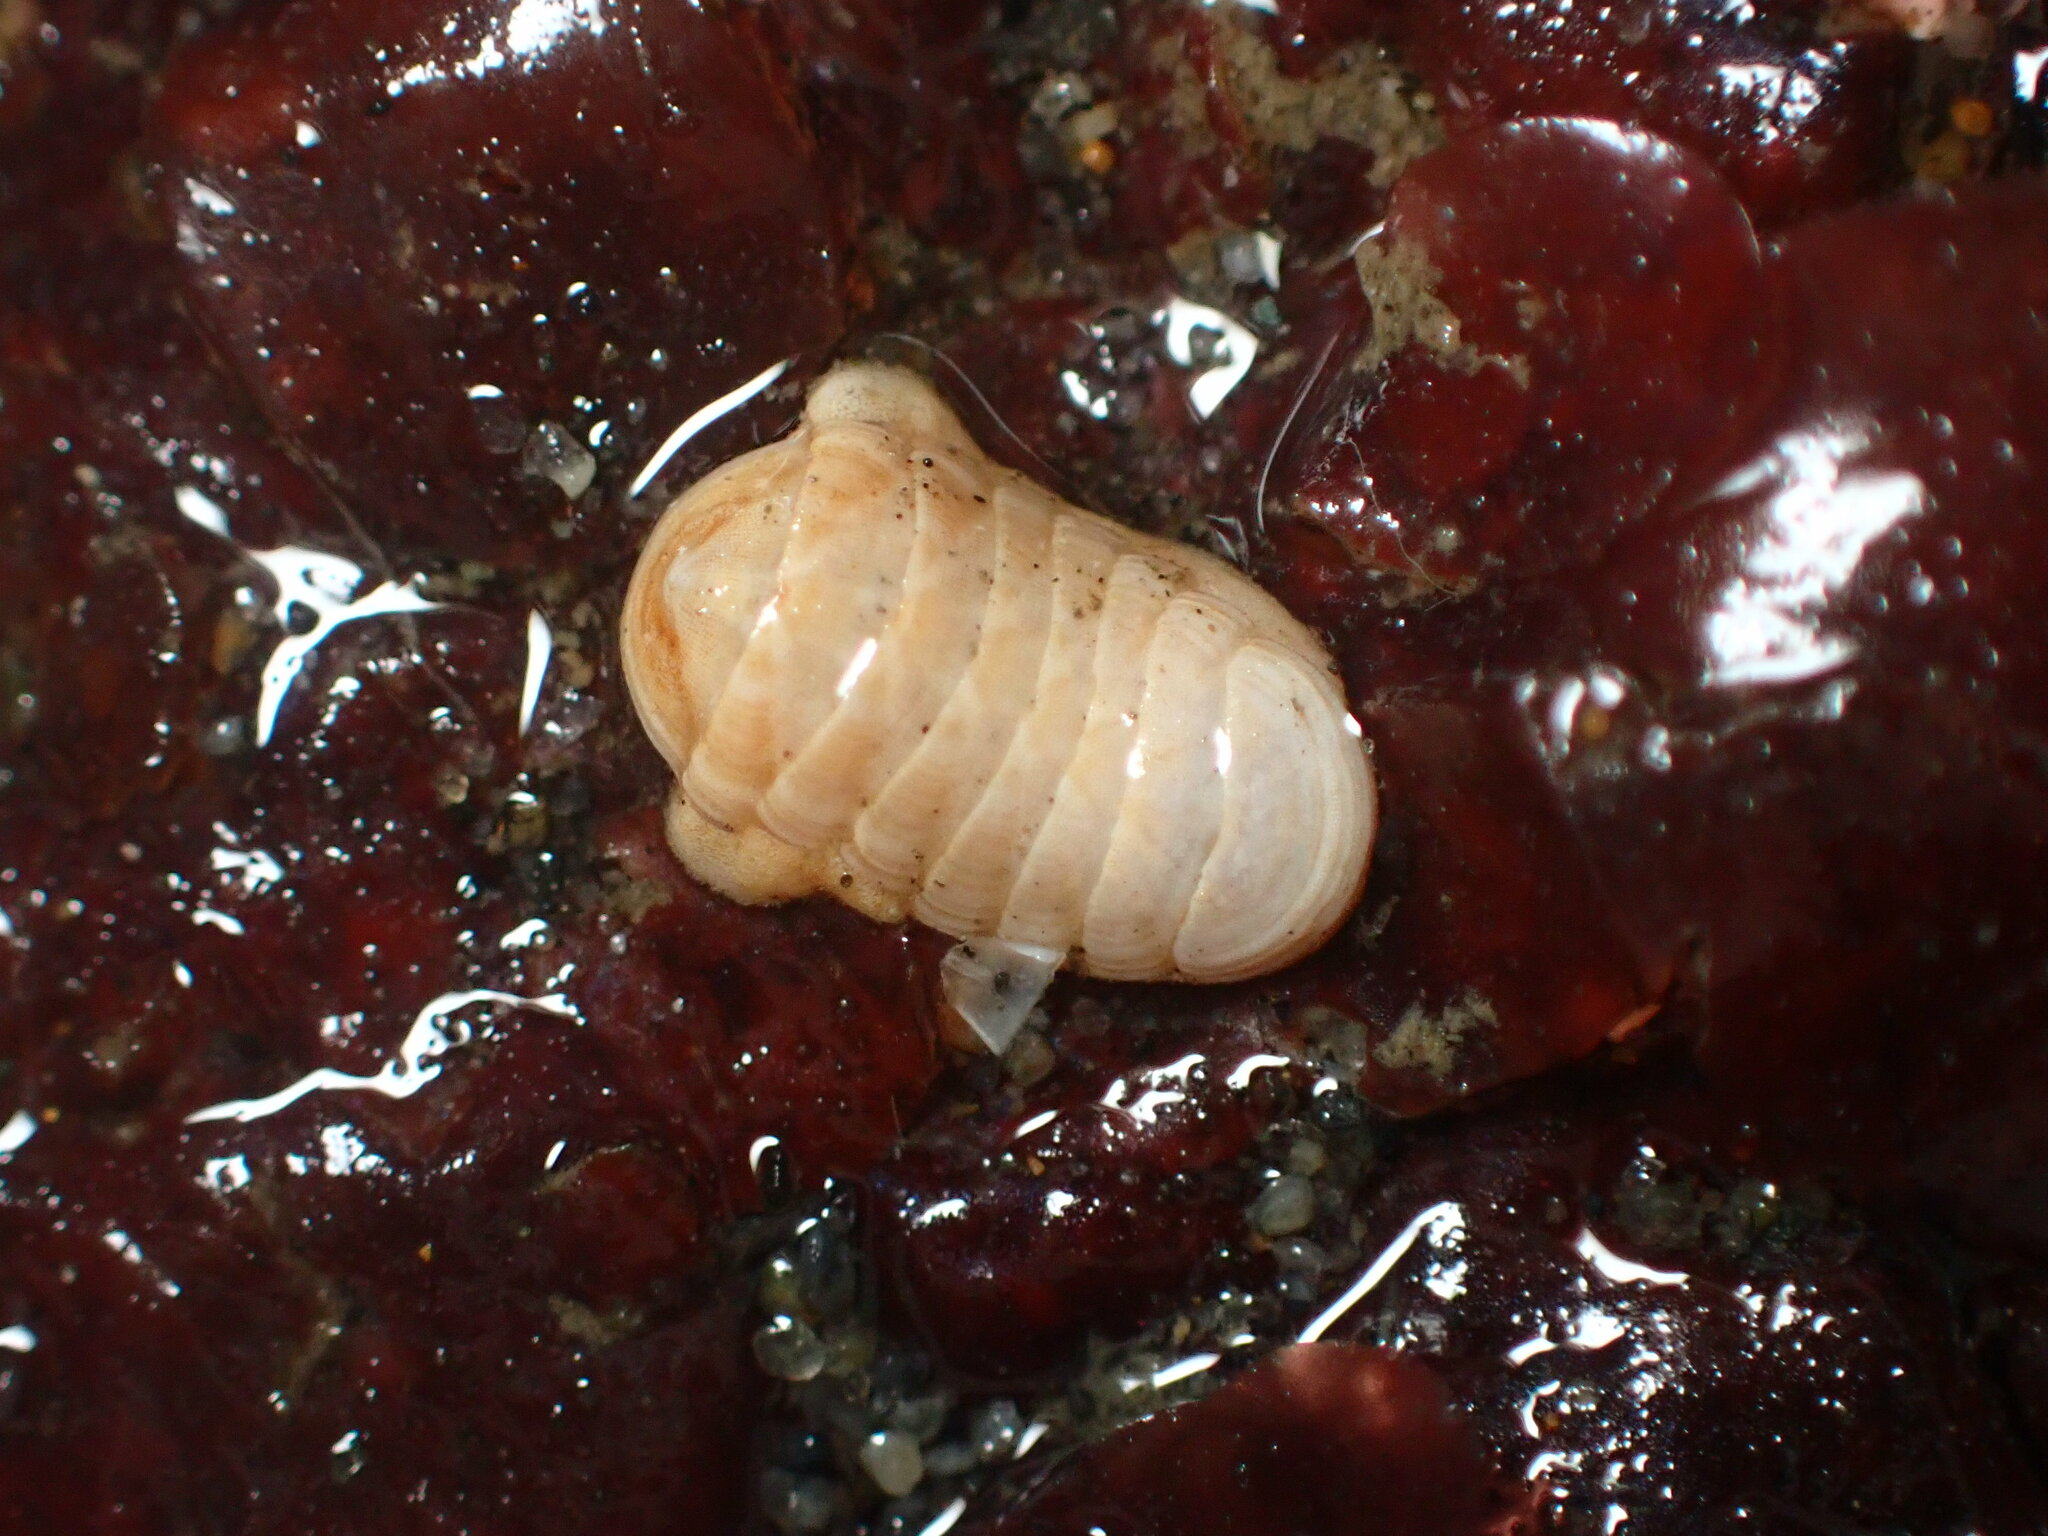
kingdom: Animalia
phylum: Mollusca
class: Polyplacophora
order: Lepidopleurida
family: Leptochitonidae
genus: Leptochiton
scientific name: Leptochiton rugatus
